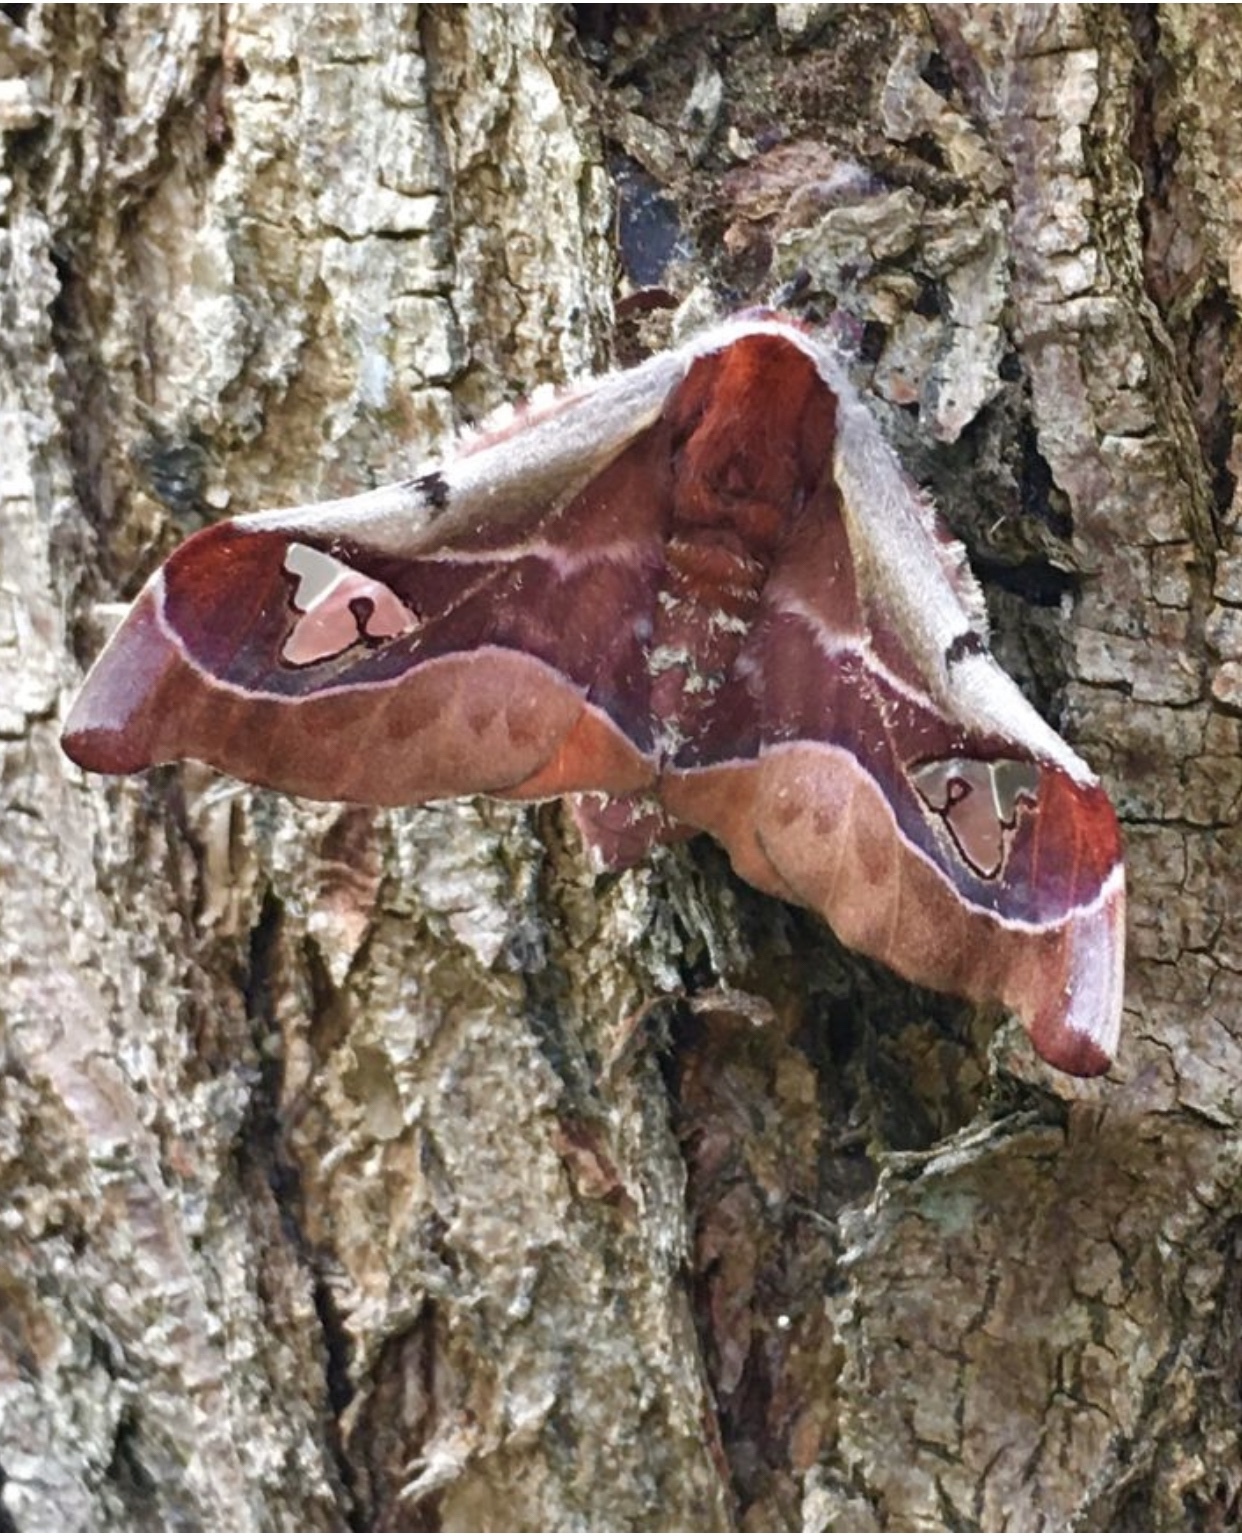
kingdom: Animalia
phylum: Arthropoda
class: Insecta
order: Lepidoptera
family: Saturniidae
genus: Holocerina
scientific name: Holocerina smilax
